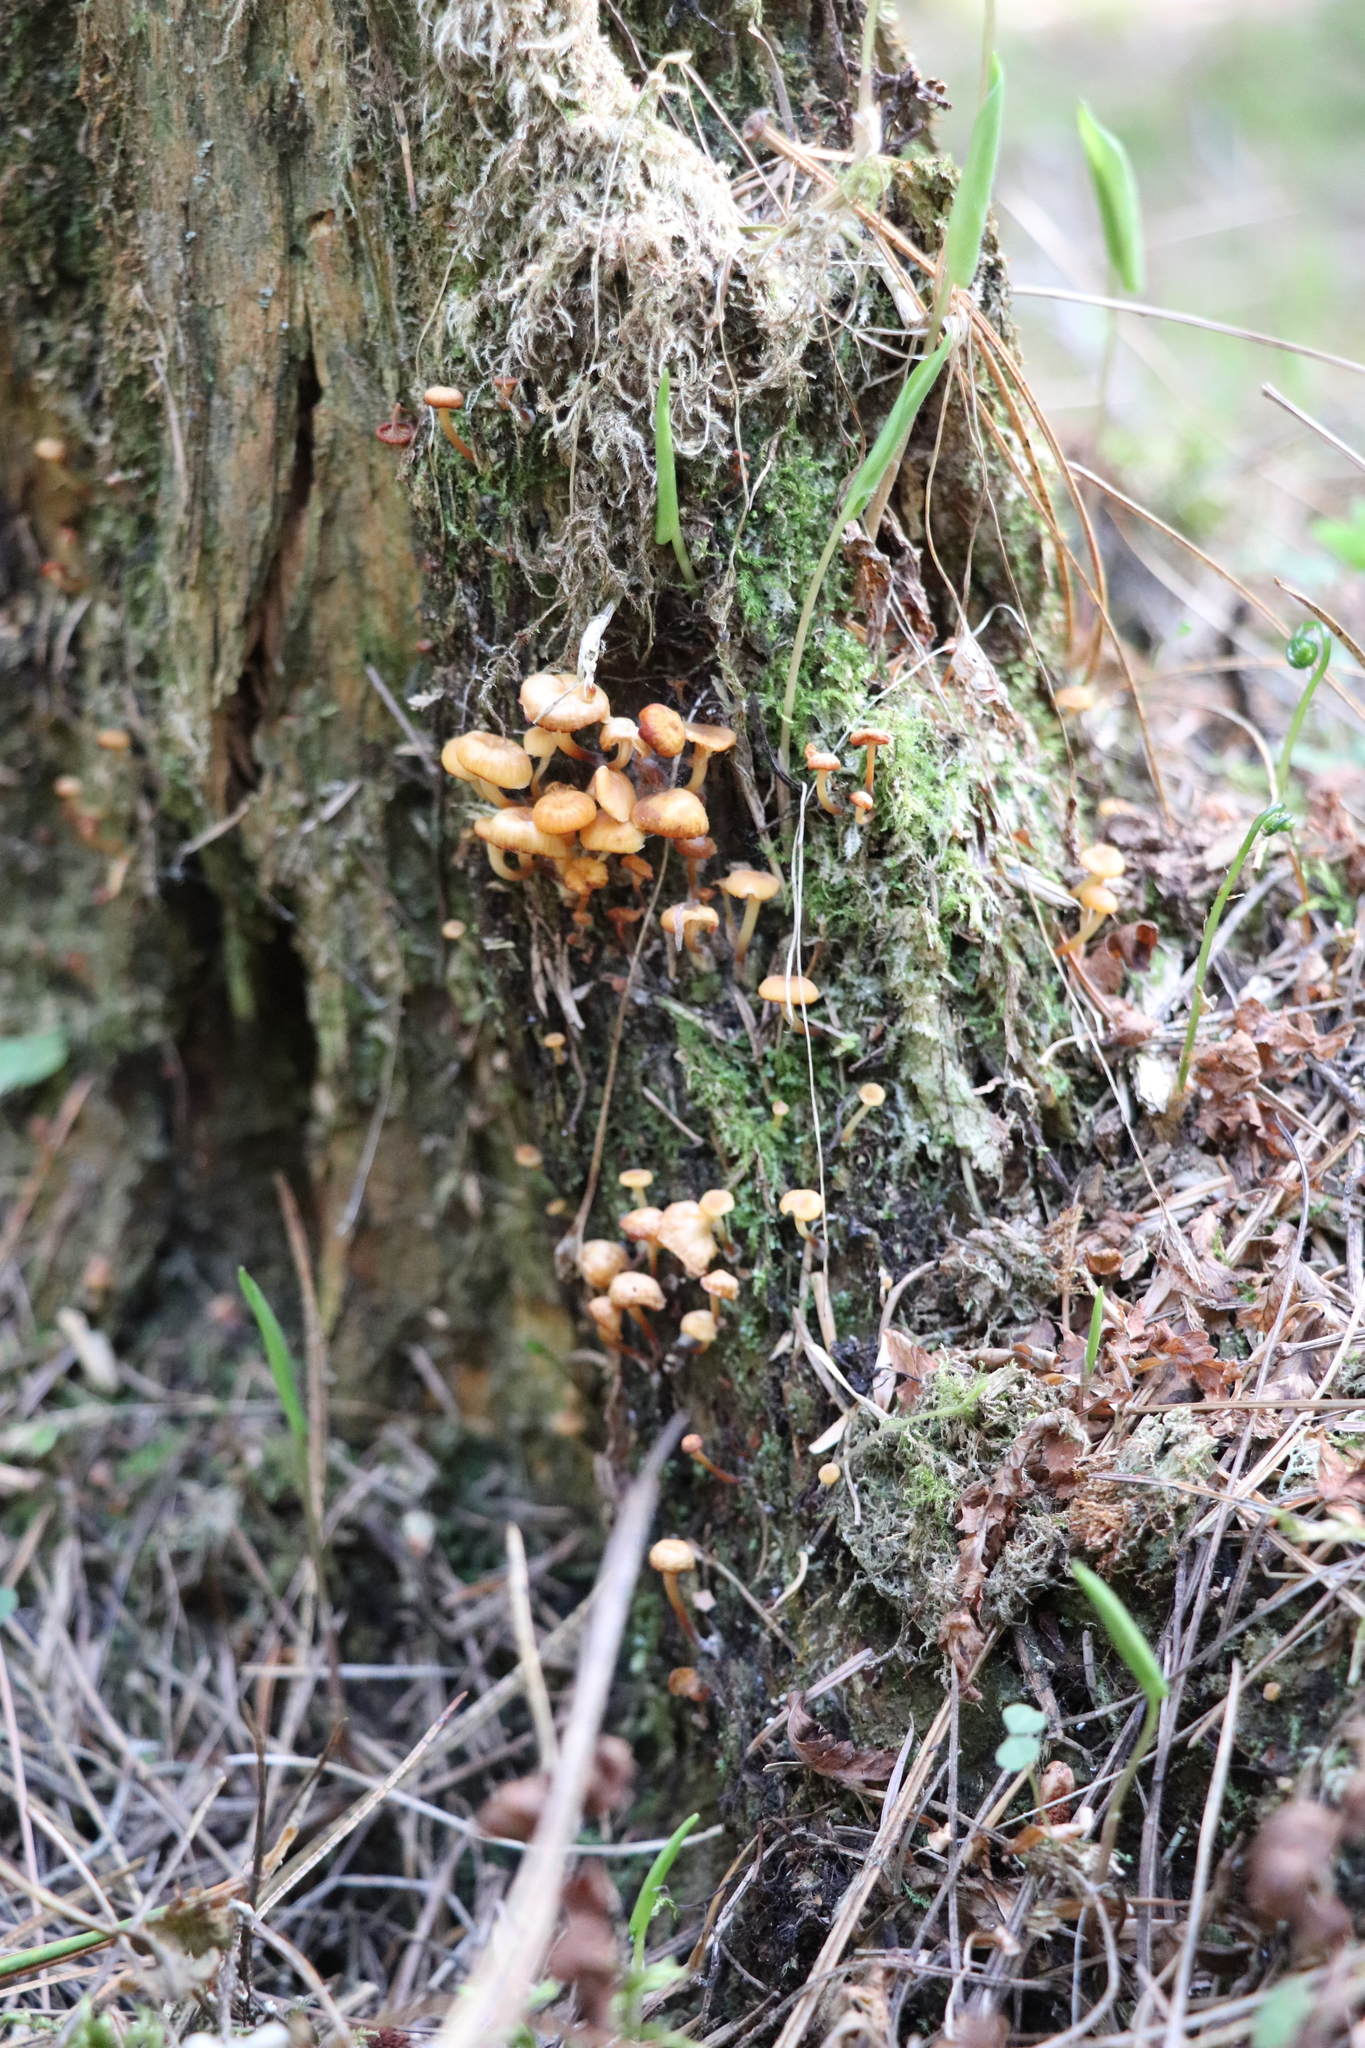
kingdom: Fungi
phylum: Basidiomycota
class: Agaricomycetes
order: Agaricales
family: Mycenaceae
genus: Xeromphalina
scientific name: Xeromphalina campanella
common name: Pinewood gingertail
